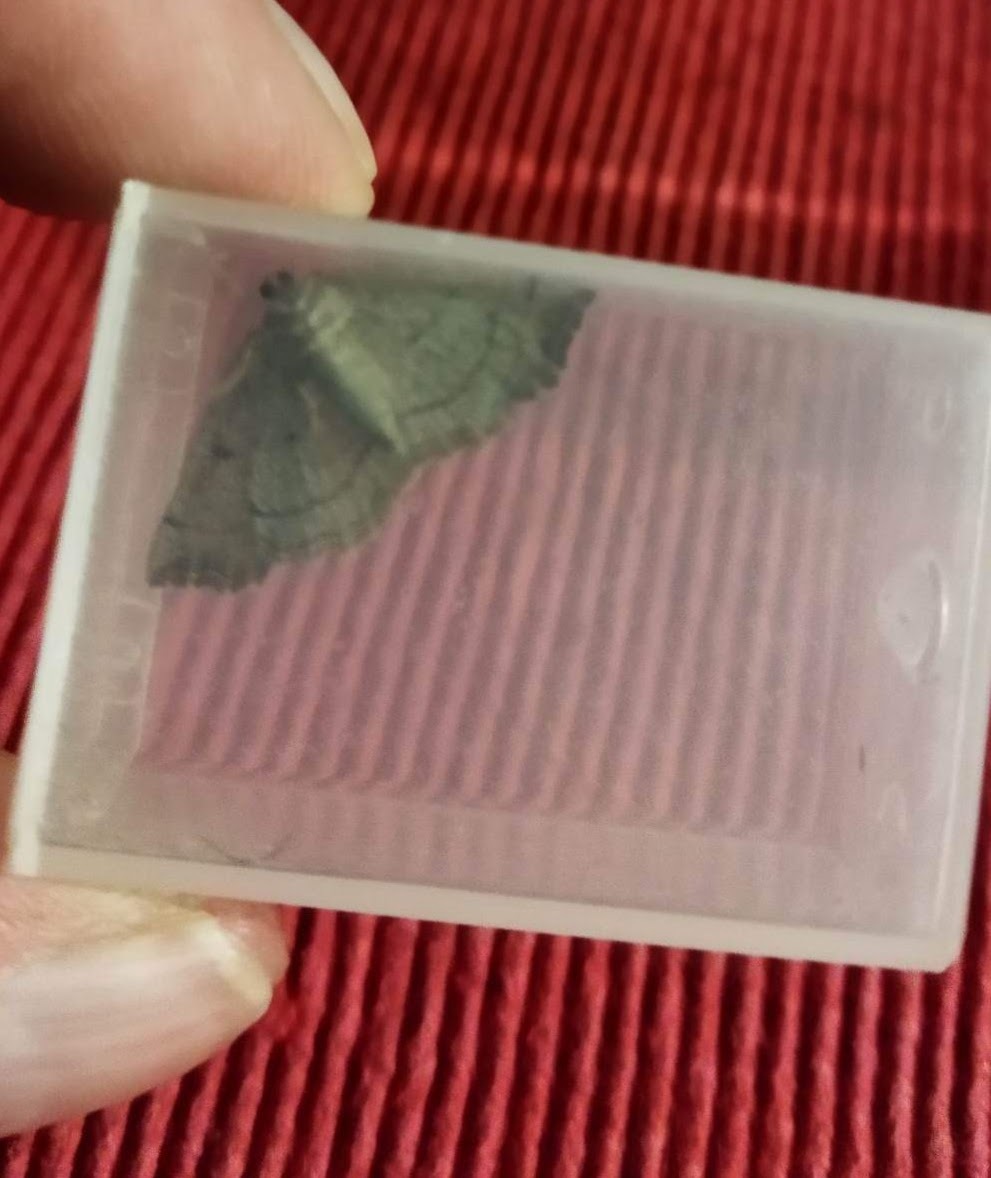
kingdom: Animalia
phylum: Arthropoda
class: Insecta
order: Lepidoptera
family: Geometridae
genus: Eilicrinia
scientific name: Eilicrinia trinotata
